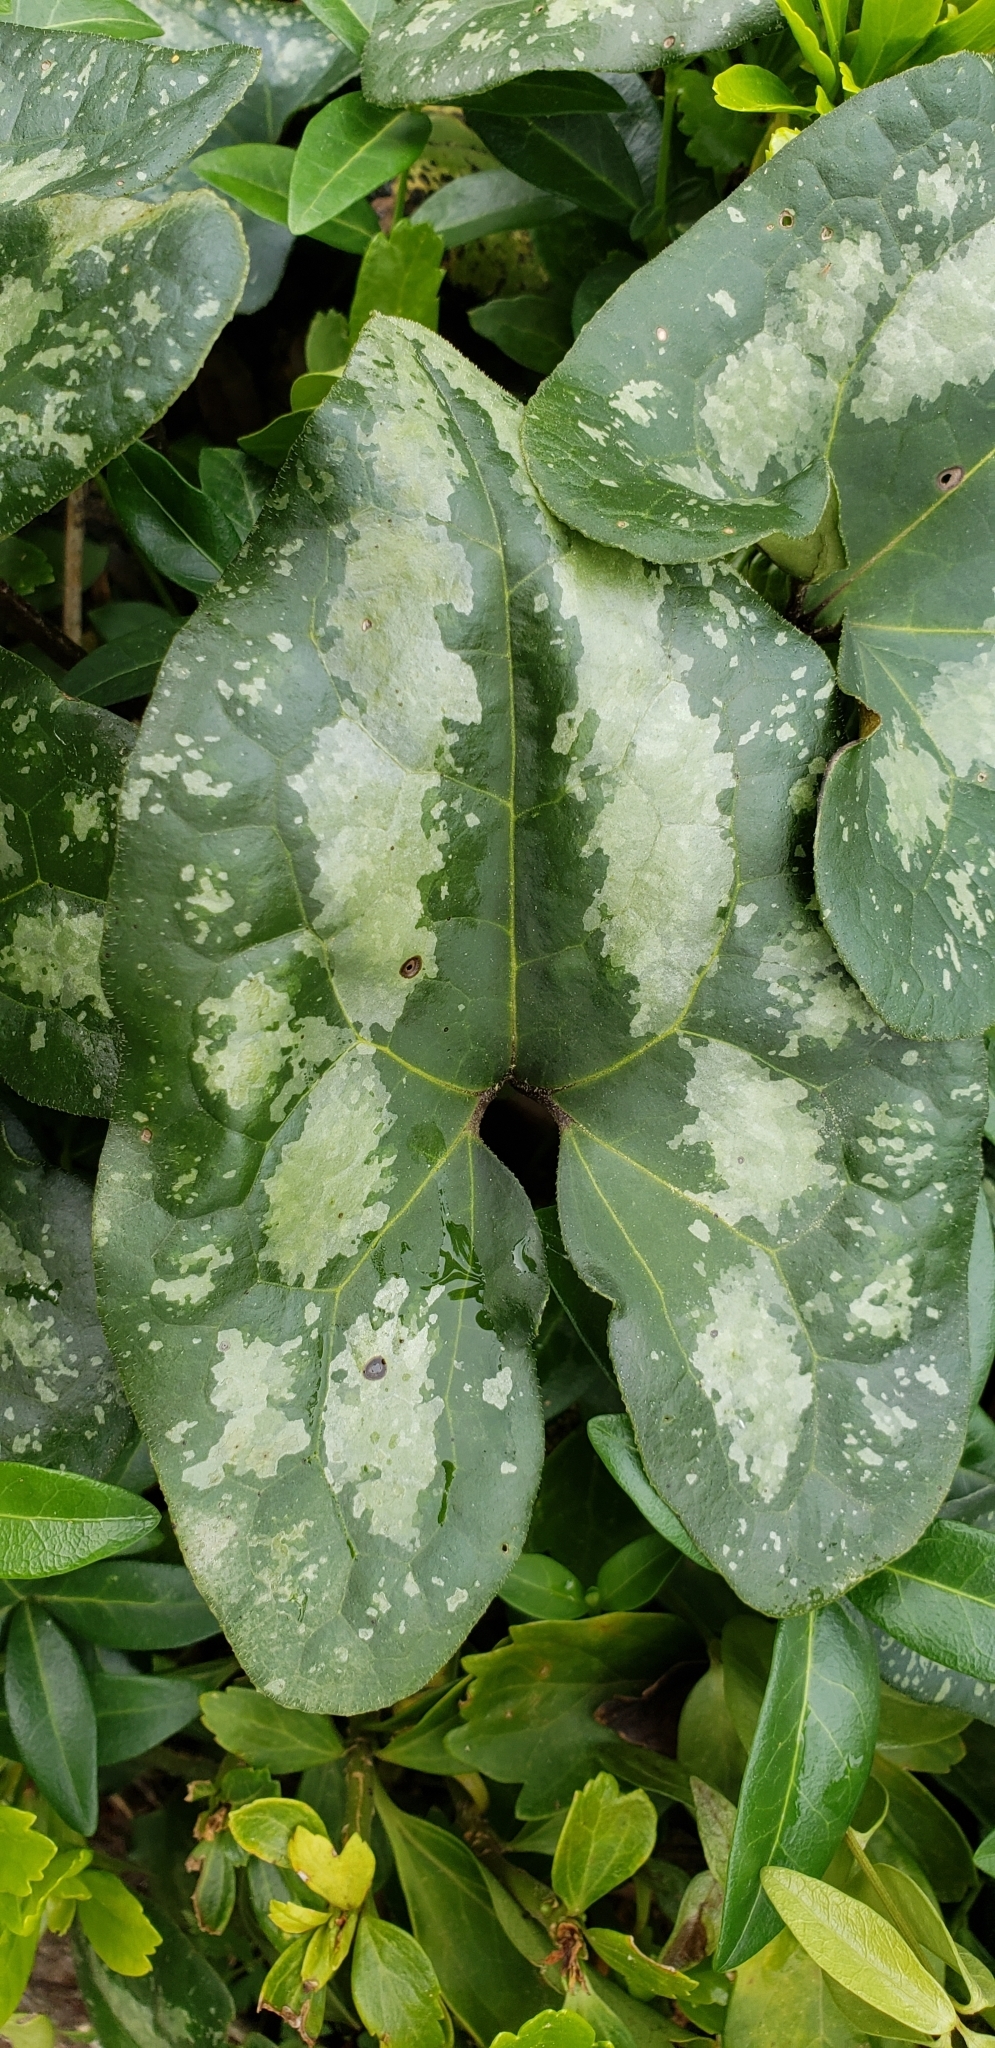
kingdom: Plantae
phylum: Tracheophyta
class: Magnoliopsida
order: Piperales
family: Aristolochiaceae
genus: Hexastylis
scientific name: Hexastylis arifolia
